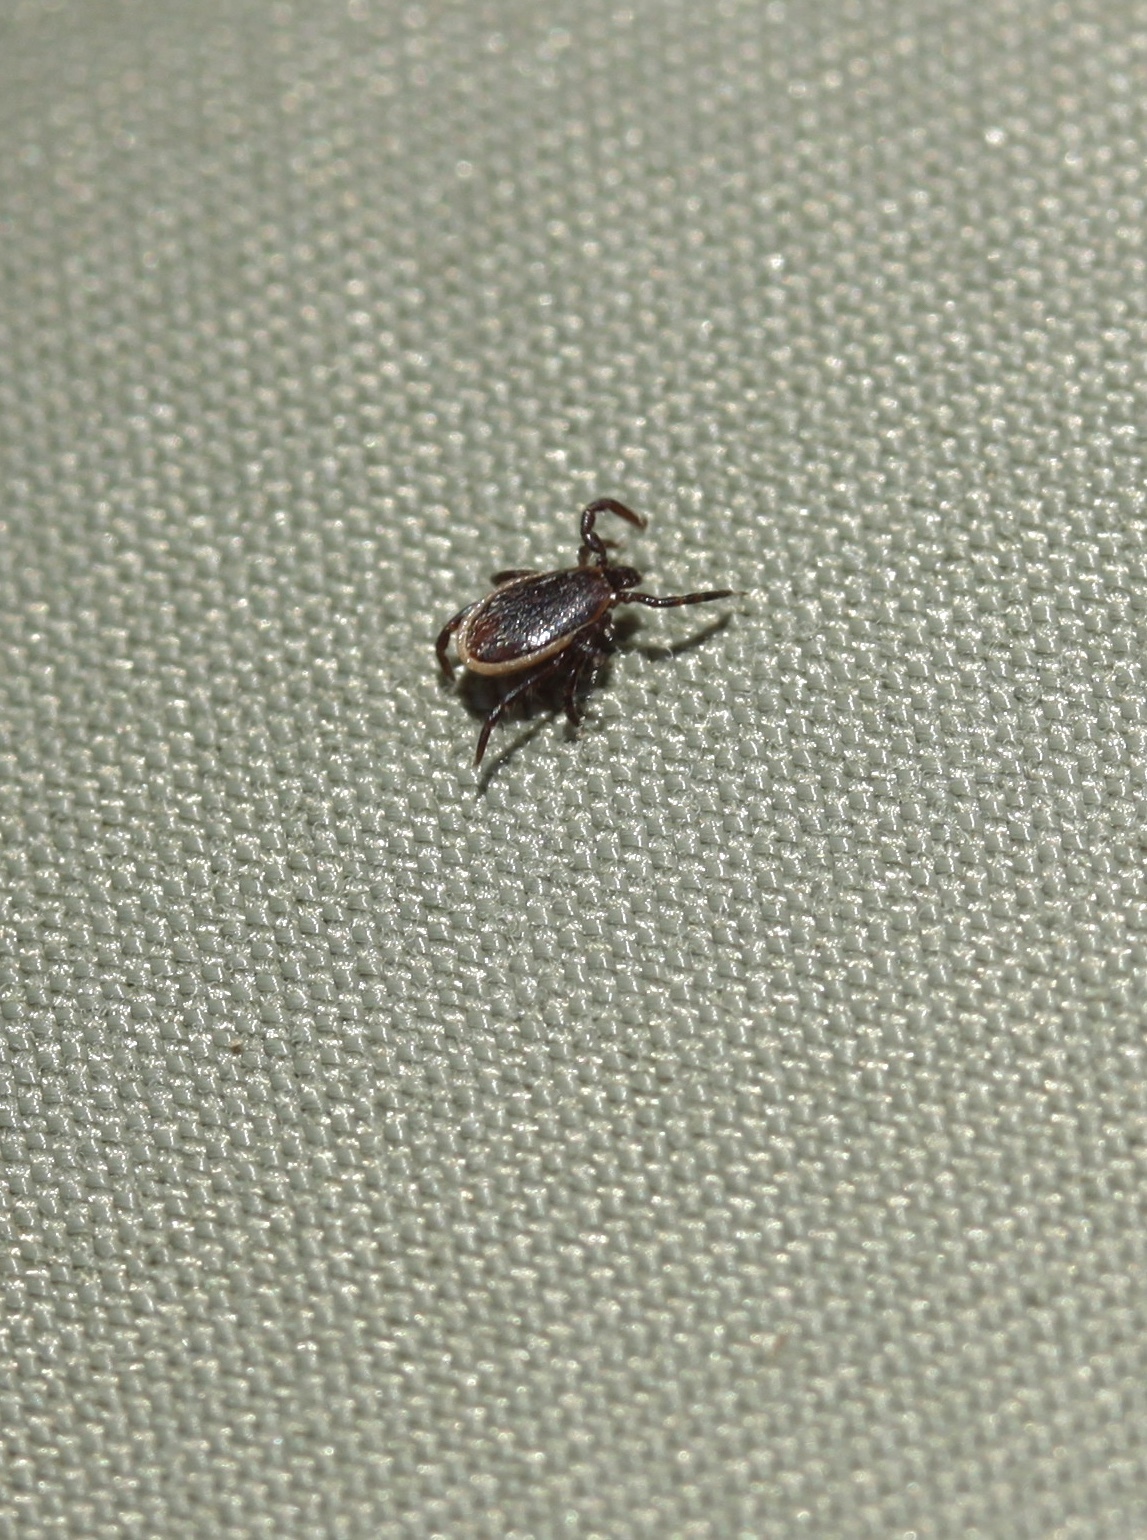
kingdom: Animalia
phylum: Arthropoda
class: Arachnida
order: Ixodida
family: Ixodidae
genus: Ixodes
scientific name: Ixodes scapularis
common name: Black legged tick
